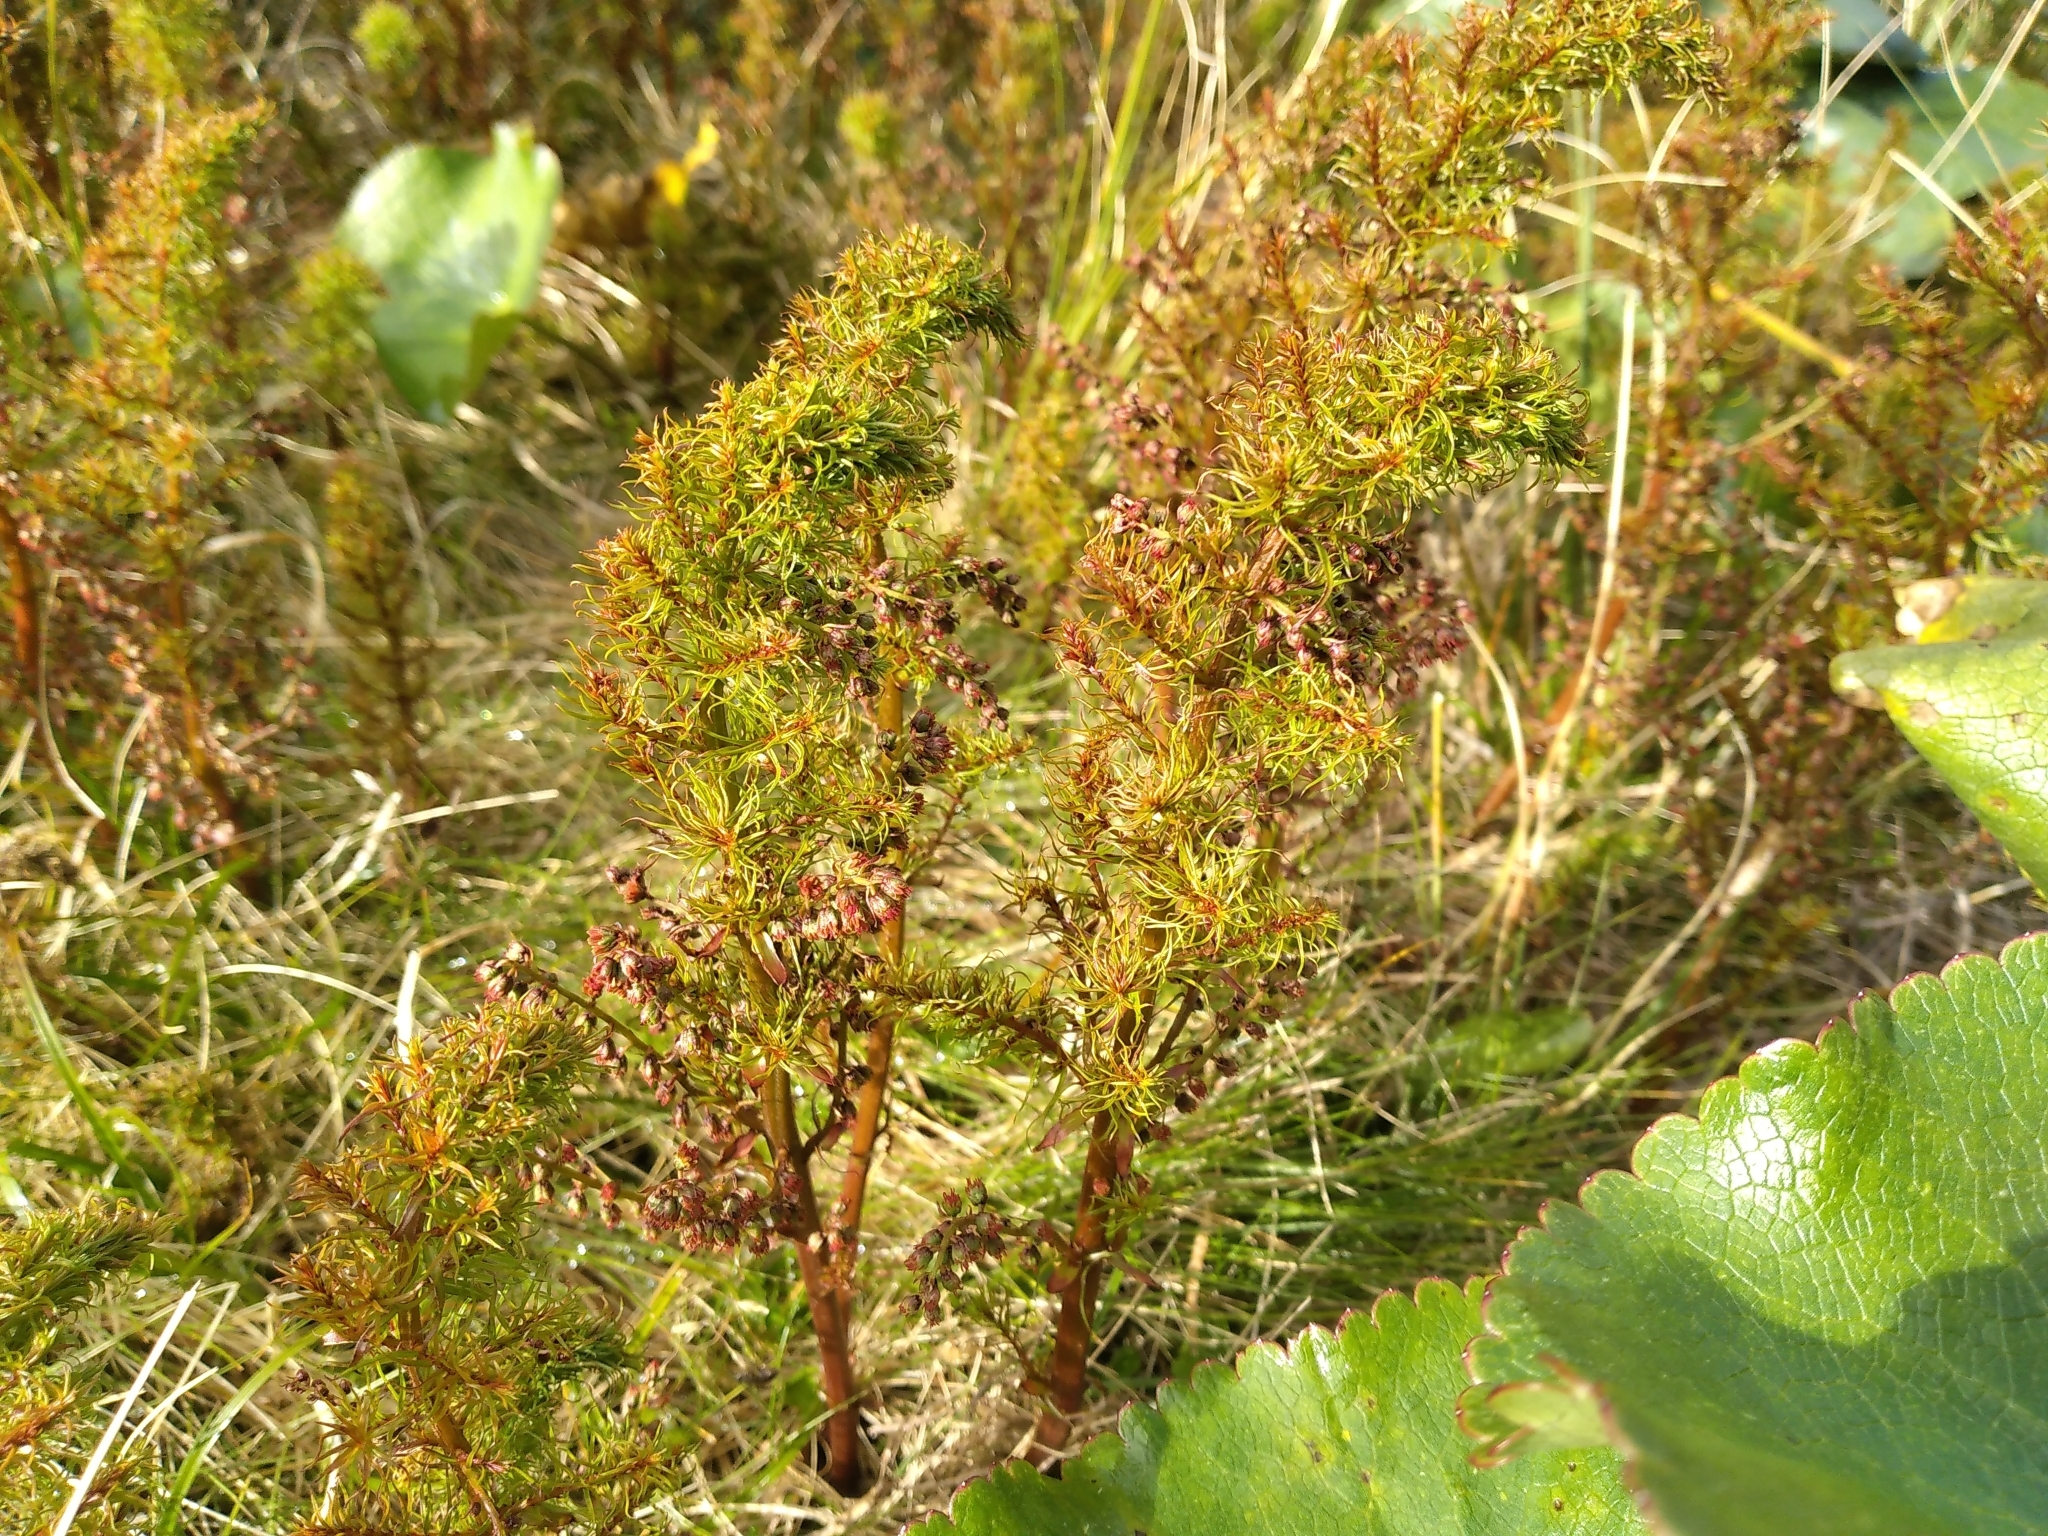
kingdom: Plantae
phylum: Tracheophyta
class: Magnoliopsida
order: Cucurbitales
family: Coriariaceae
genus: Coriaria
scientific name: Coriaria angustissima
